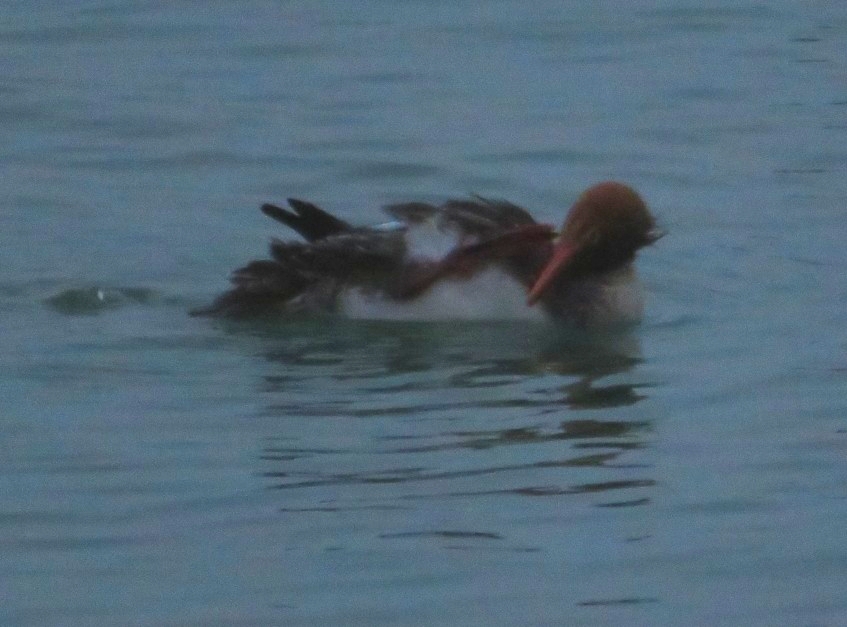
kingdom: Animalia
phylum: Chordata
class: Aves
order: Anseriformes
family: Anatidae
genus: Mergus
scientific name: Mergus serrator
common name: Red-breasted merganser
